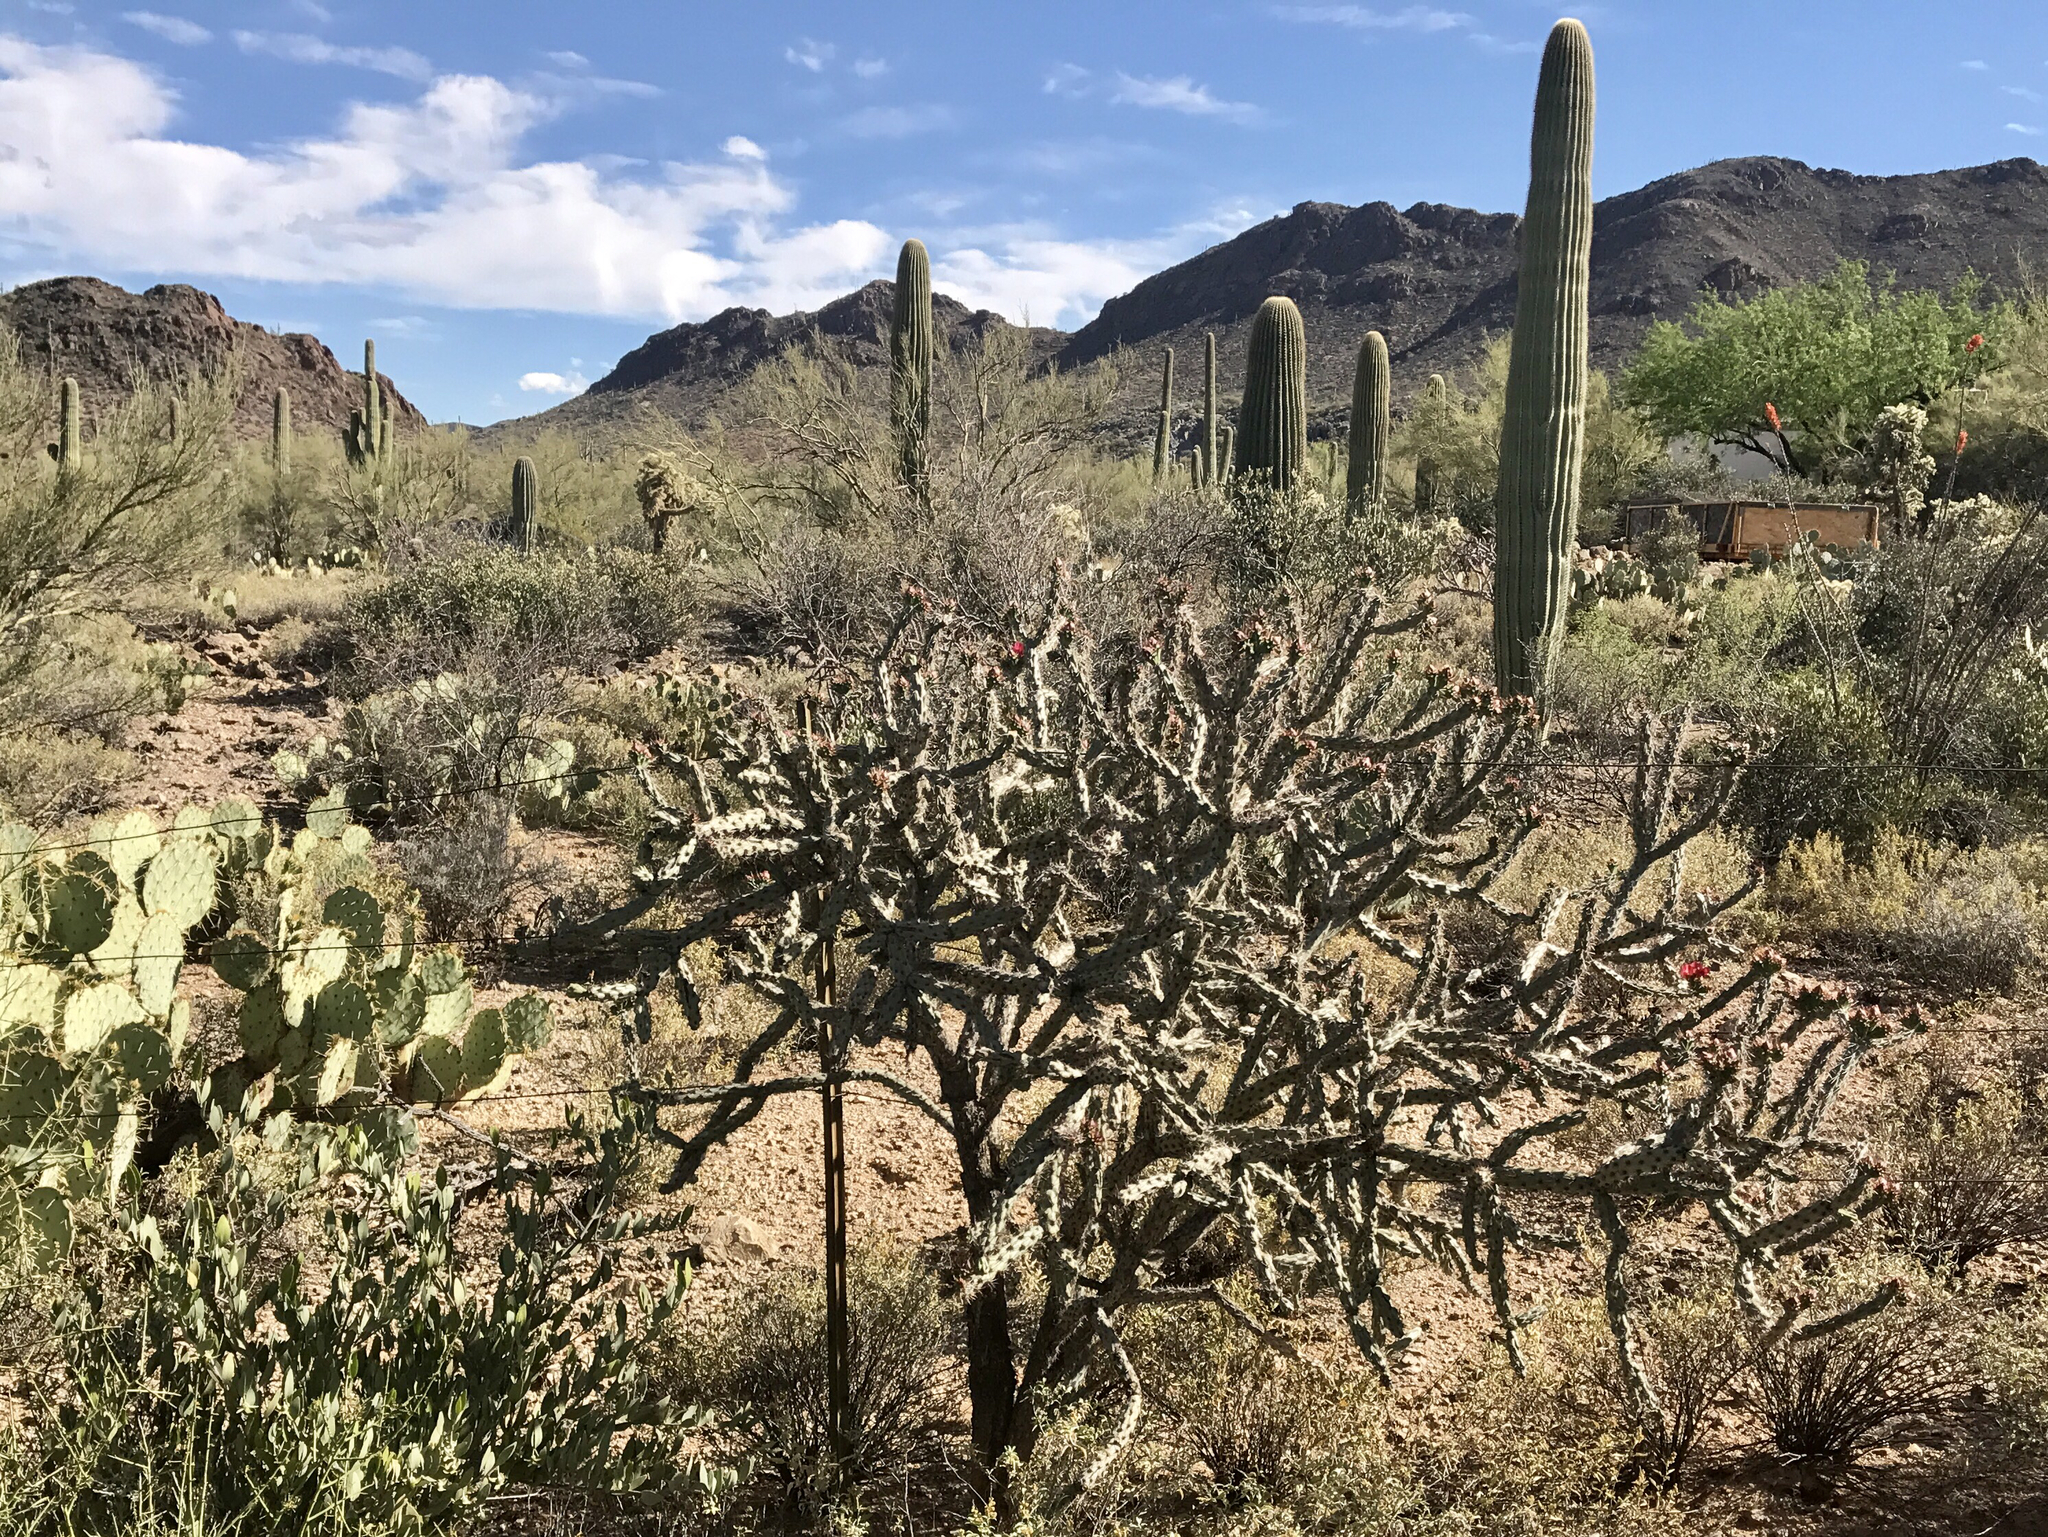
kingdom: Plantae
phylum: Tracheophyta
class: Magnoliopsida
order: Caryophyllales
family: Cactaceae
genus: Cylindropuntia
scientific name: Cylindropuntia thurberi
